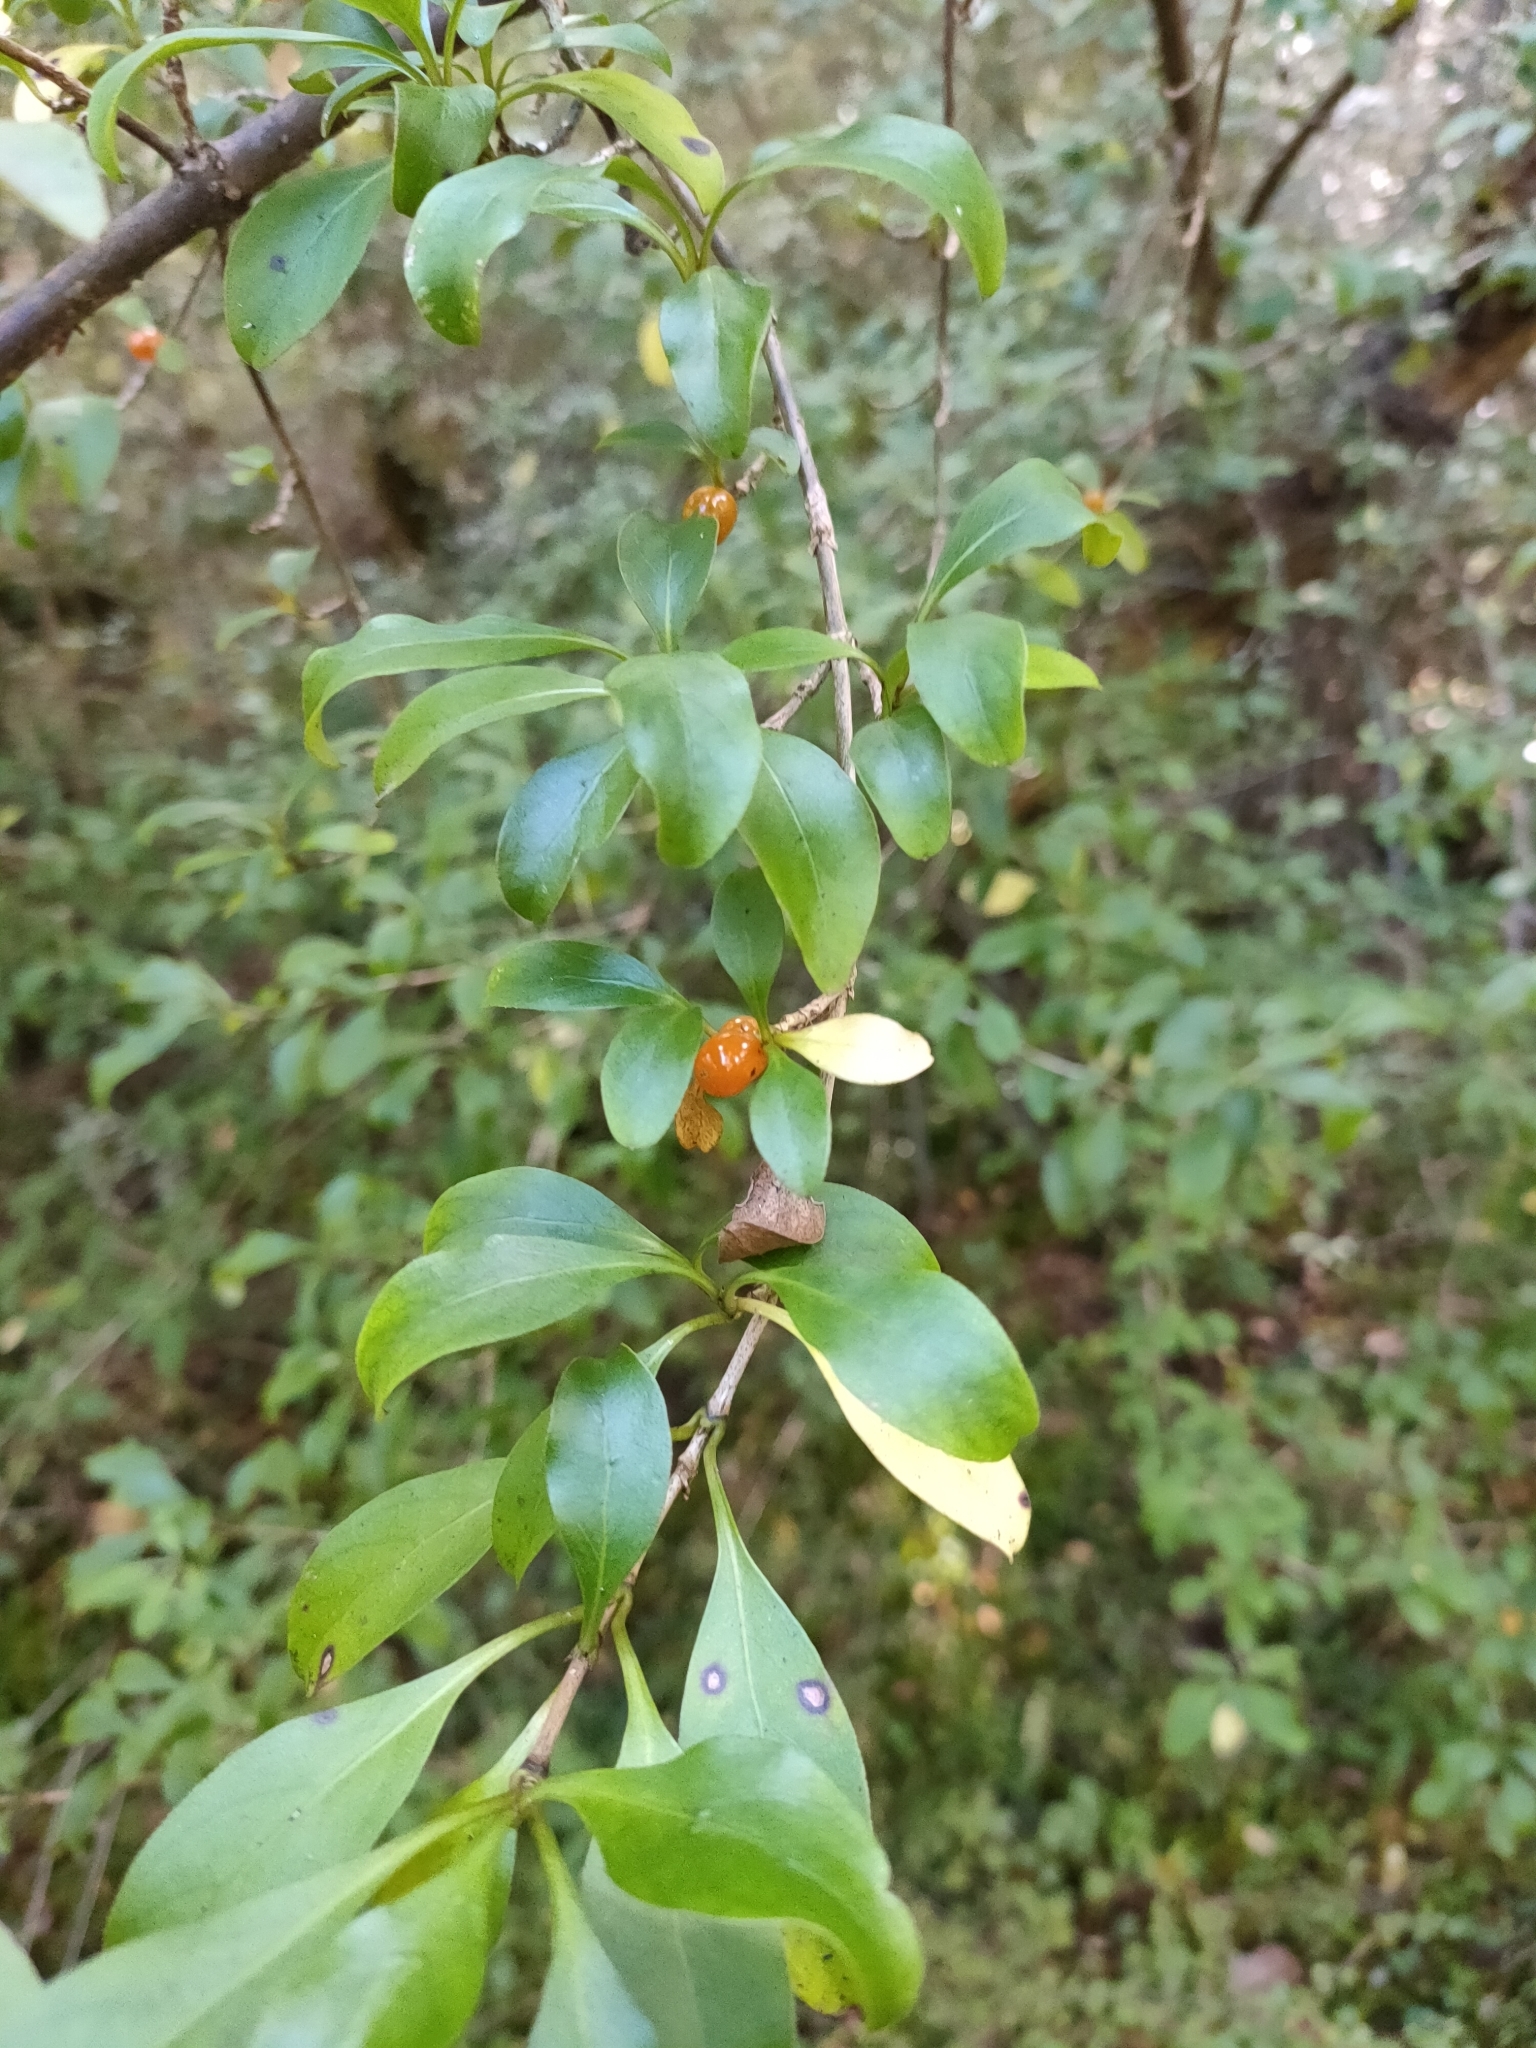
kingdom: Plantae
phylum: Tracheophyta
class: Magnoliopsida
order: Gentianales
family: Rubiaceae
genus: Coprosma
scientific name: Coprosma foetidissima
